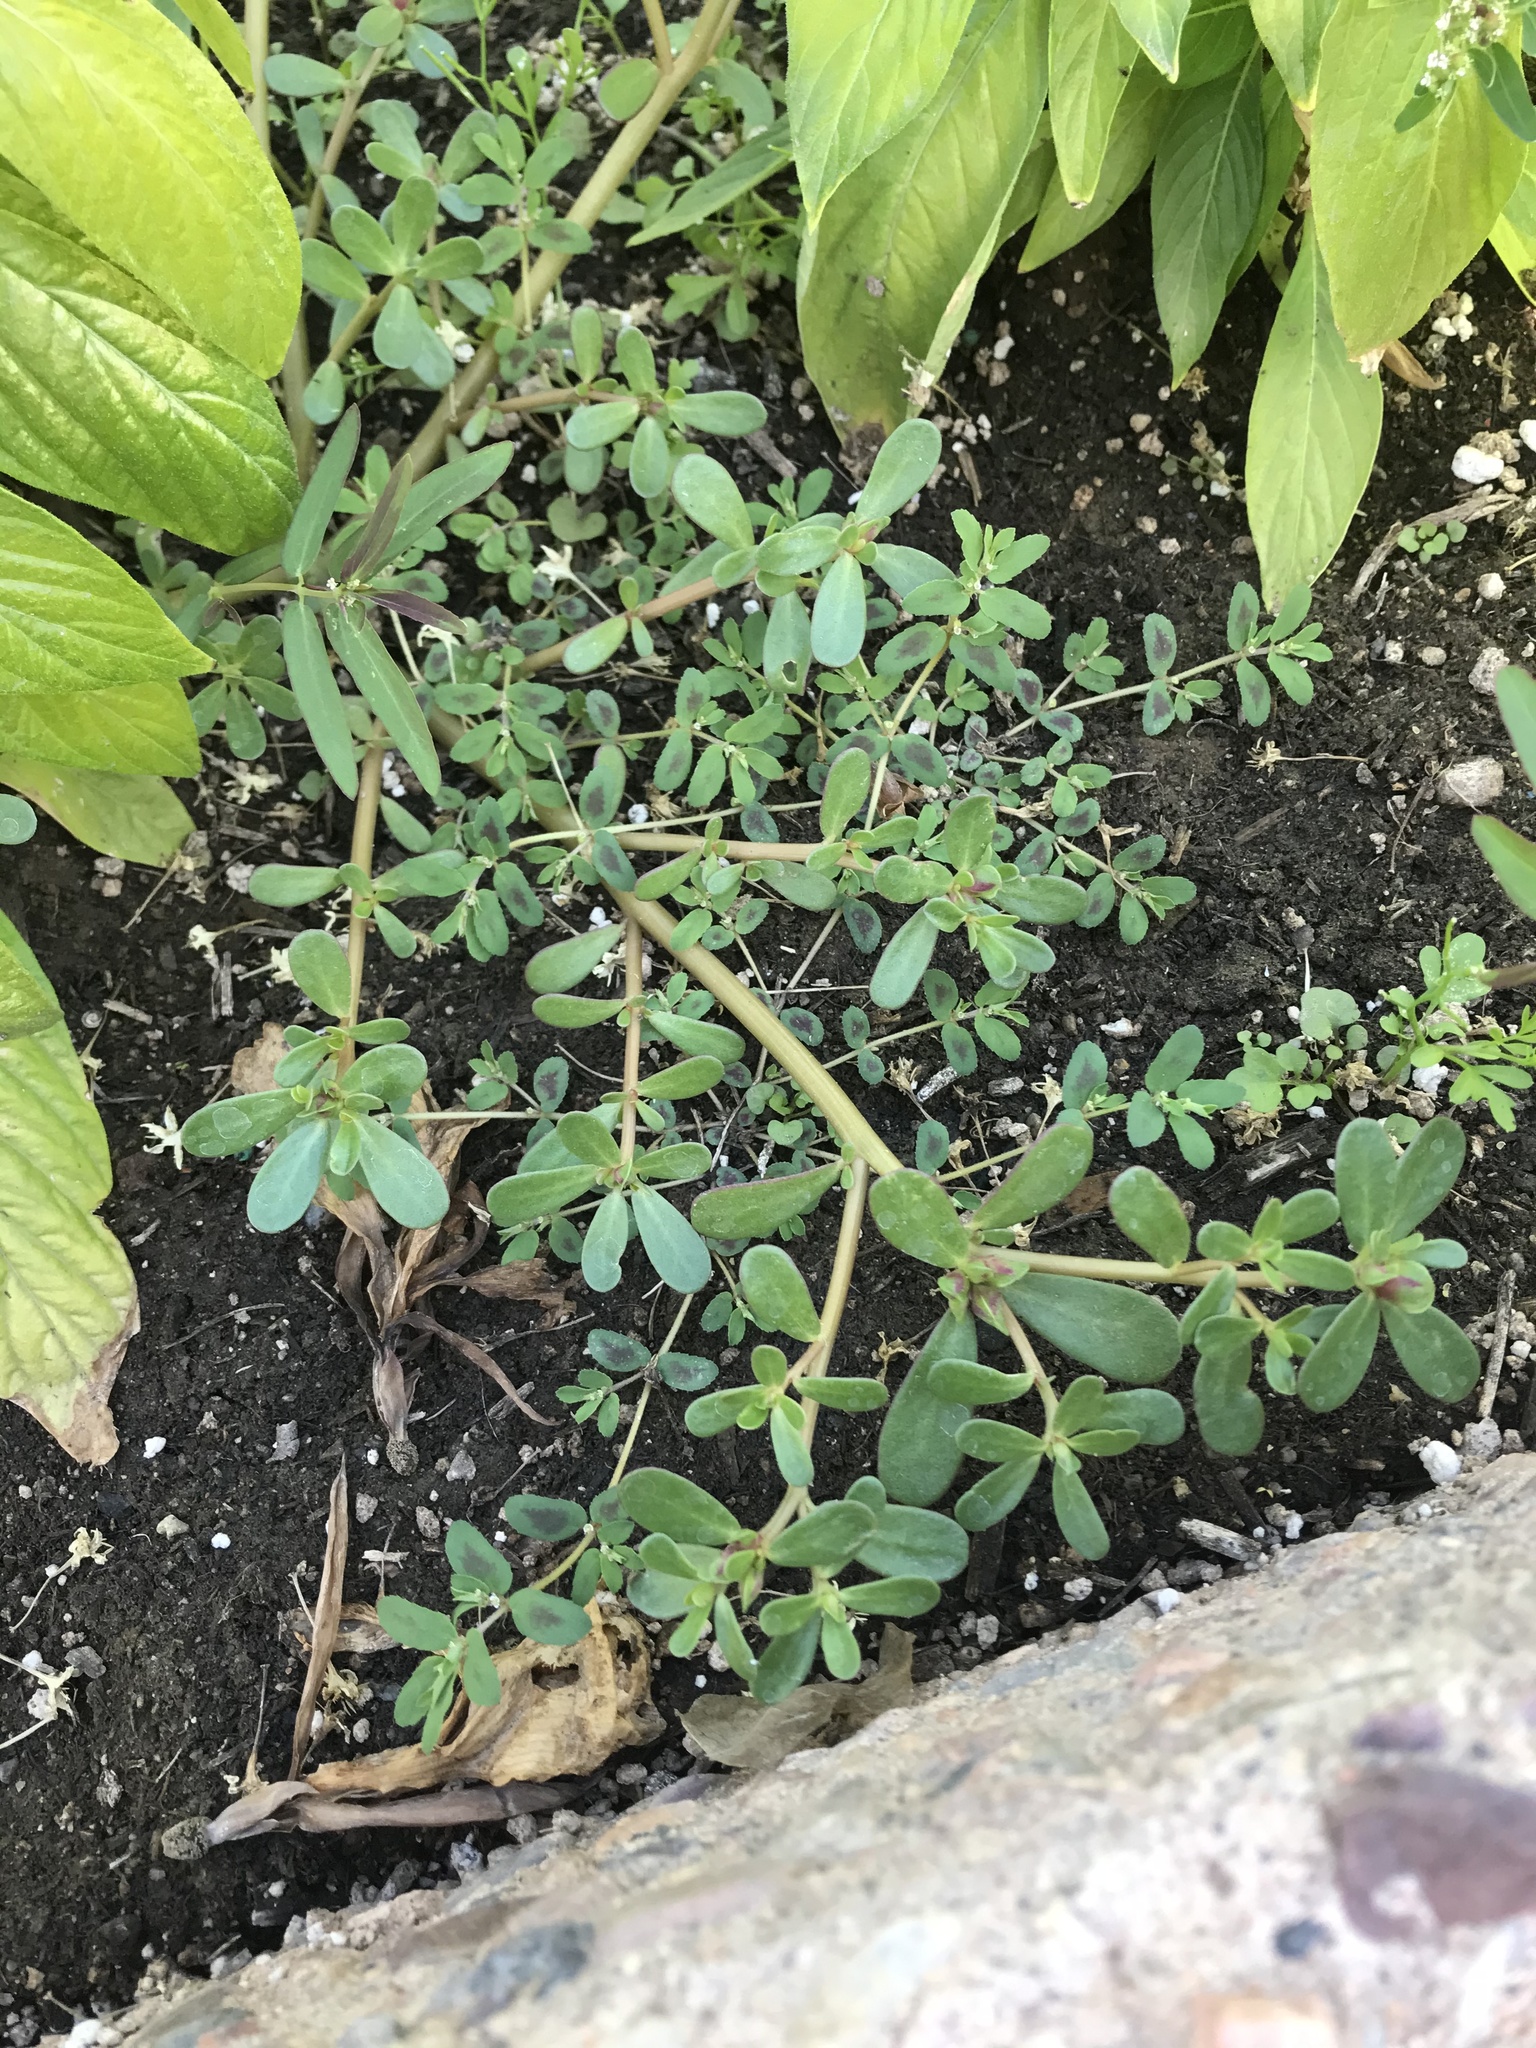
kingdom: Plantae
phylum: Tracheophyta
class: Magnoliopsida
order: Caryophyllales
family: Portulacaceae
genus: Portulaca
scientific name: Portulaca oleracea
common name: Common purslane
